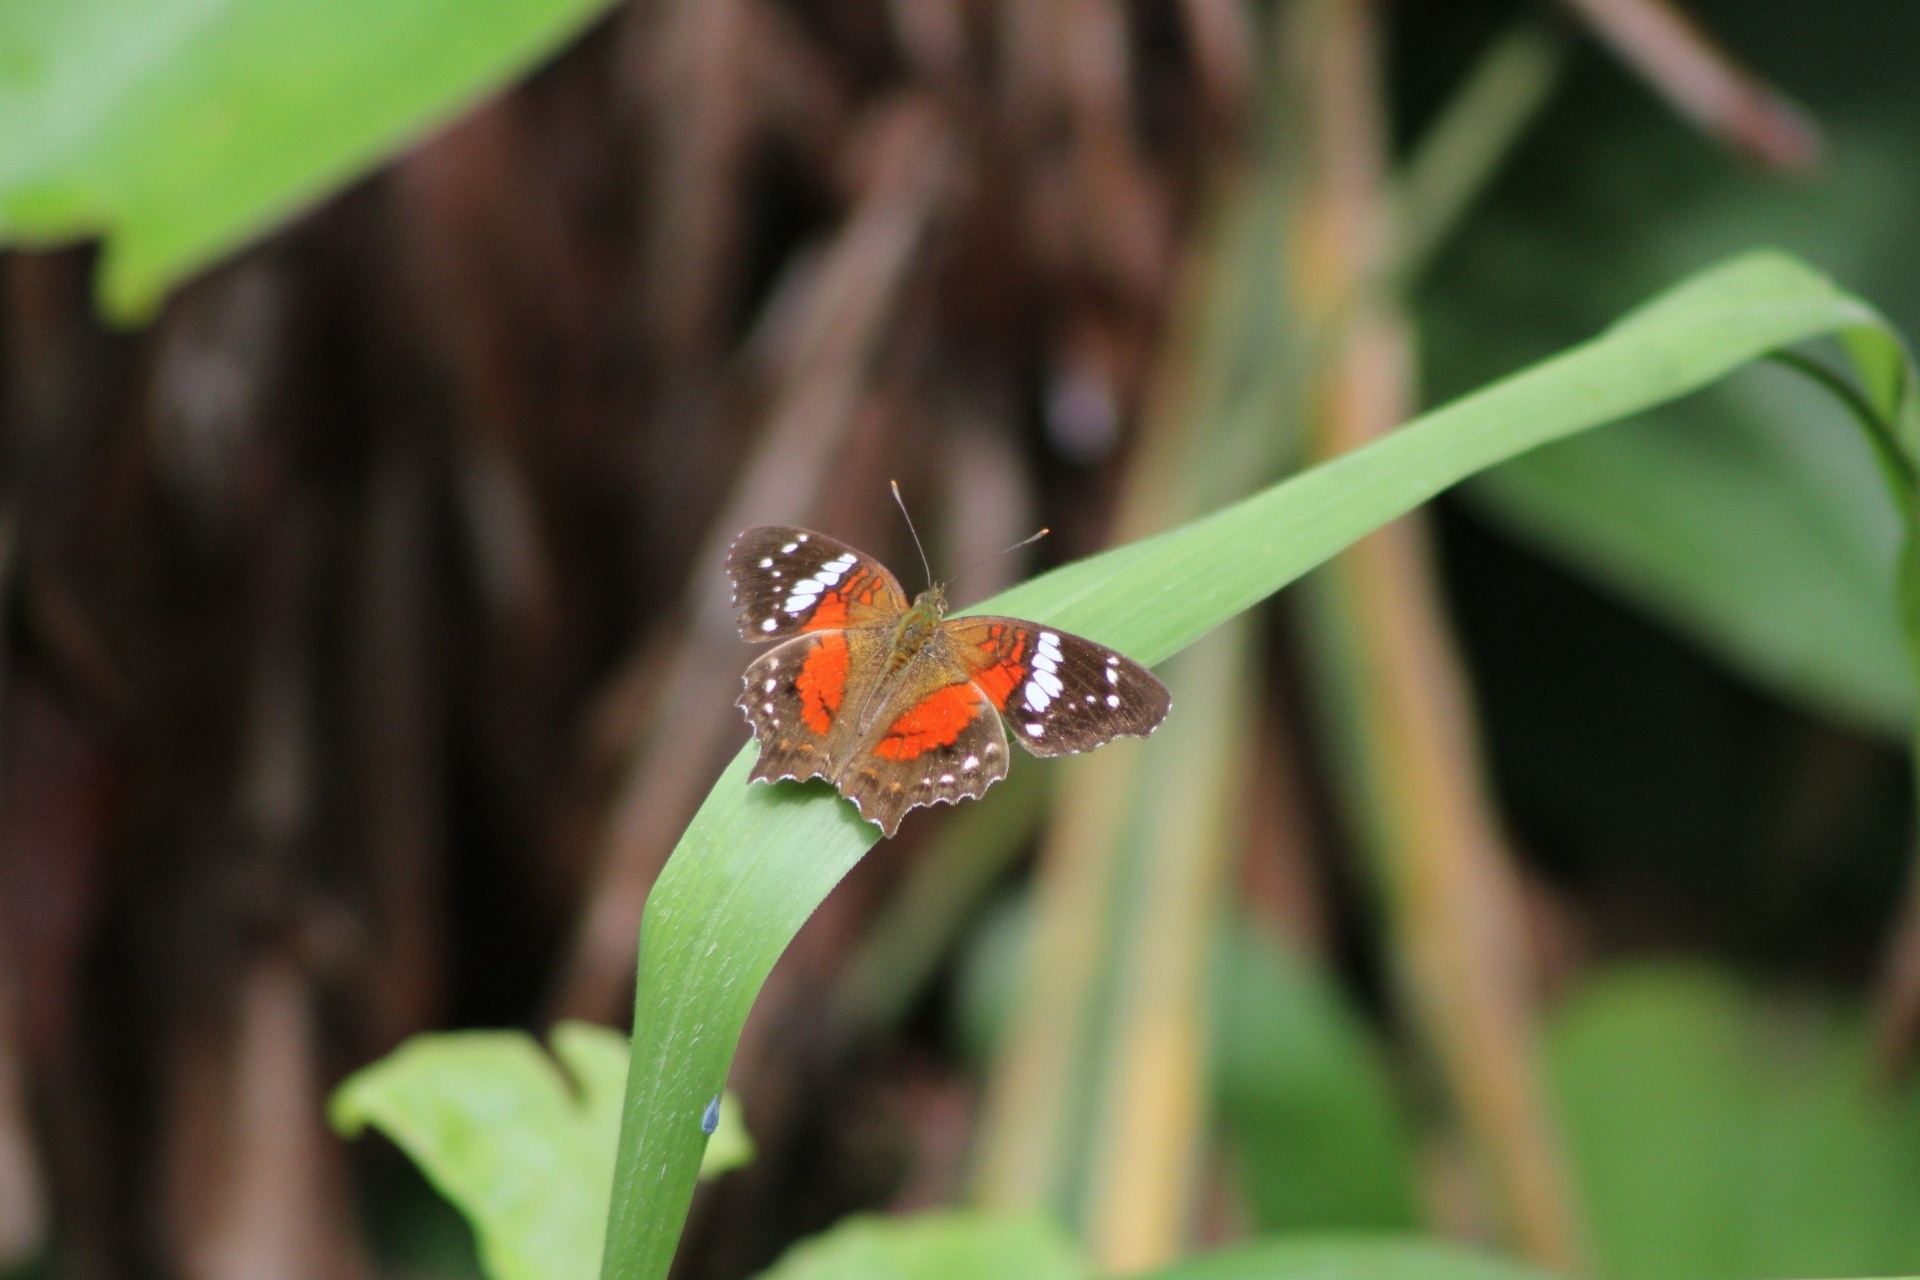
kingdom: Animalia
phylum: Arthropoda
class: Insecta
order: Lepidoptera
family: Nymphalidae
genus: Anartia
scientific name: Anartia amathea
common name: Red peacock
